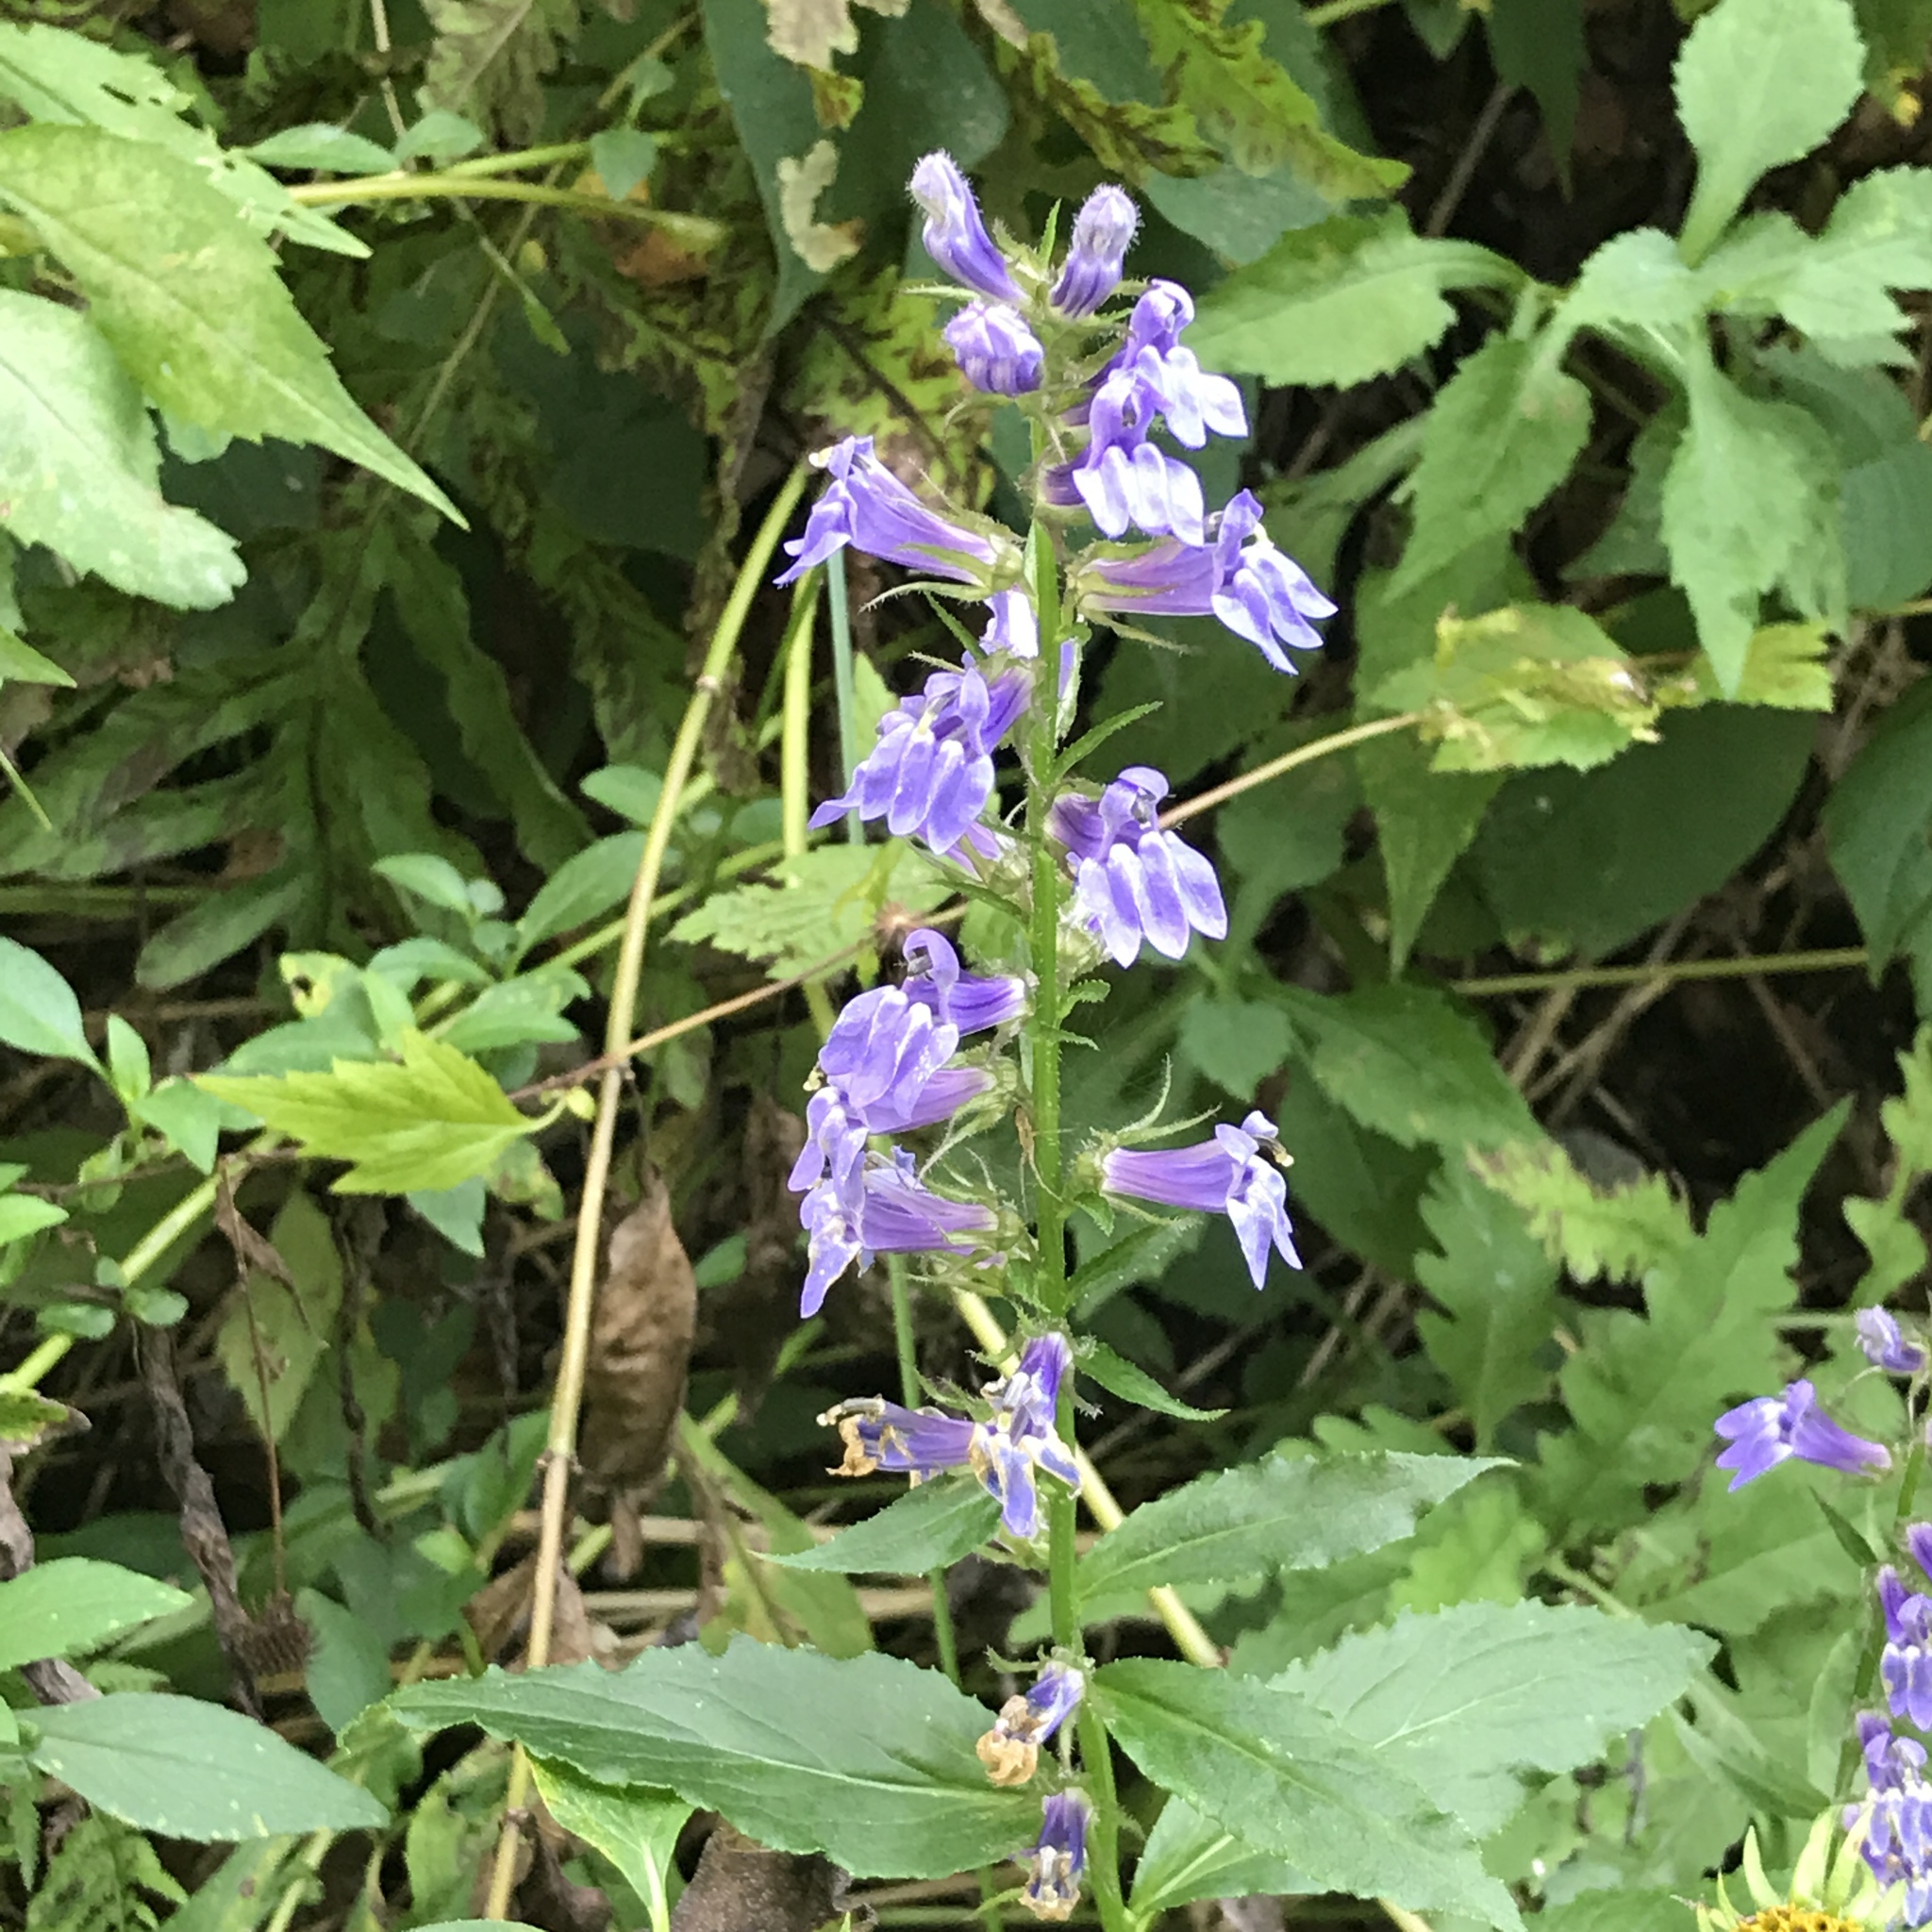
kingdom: Plantae
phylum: Tracheophyta
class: Magnoliopsida
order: Asterales
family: Campanulaceae
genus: Lobelia
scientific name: Lobelia siphilitica
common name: Great lobelia
